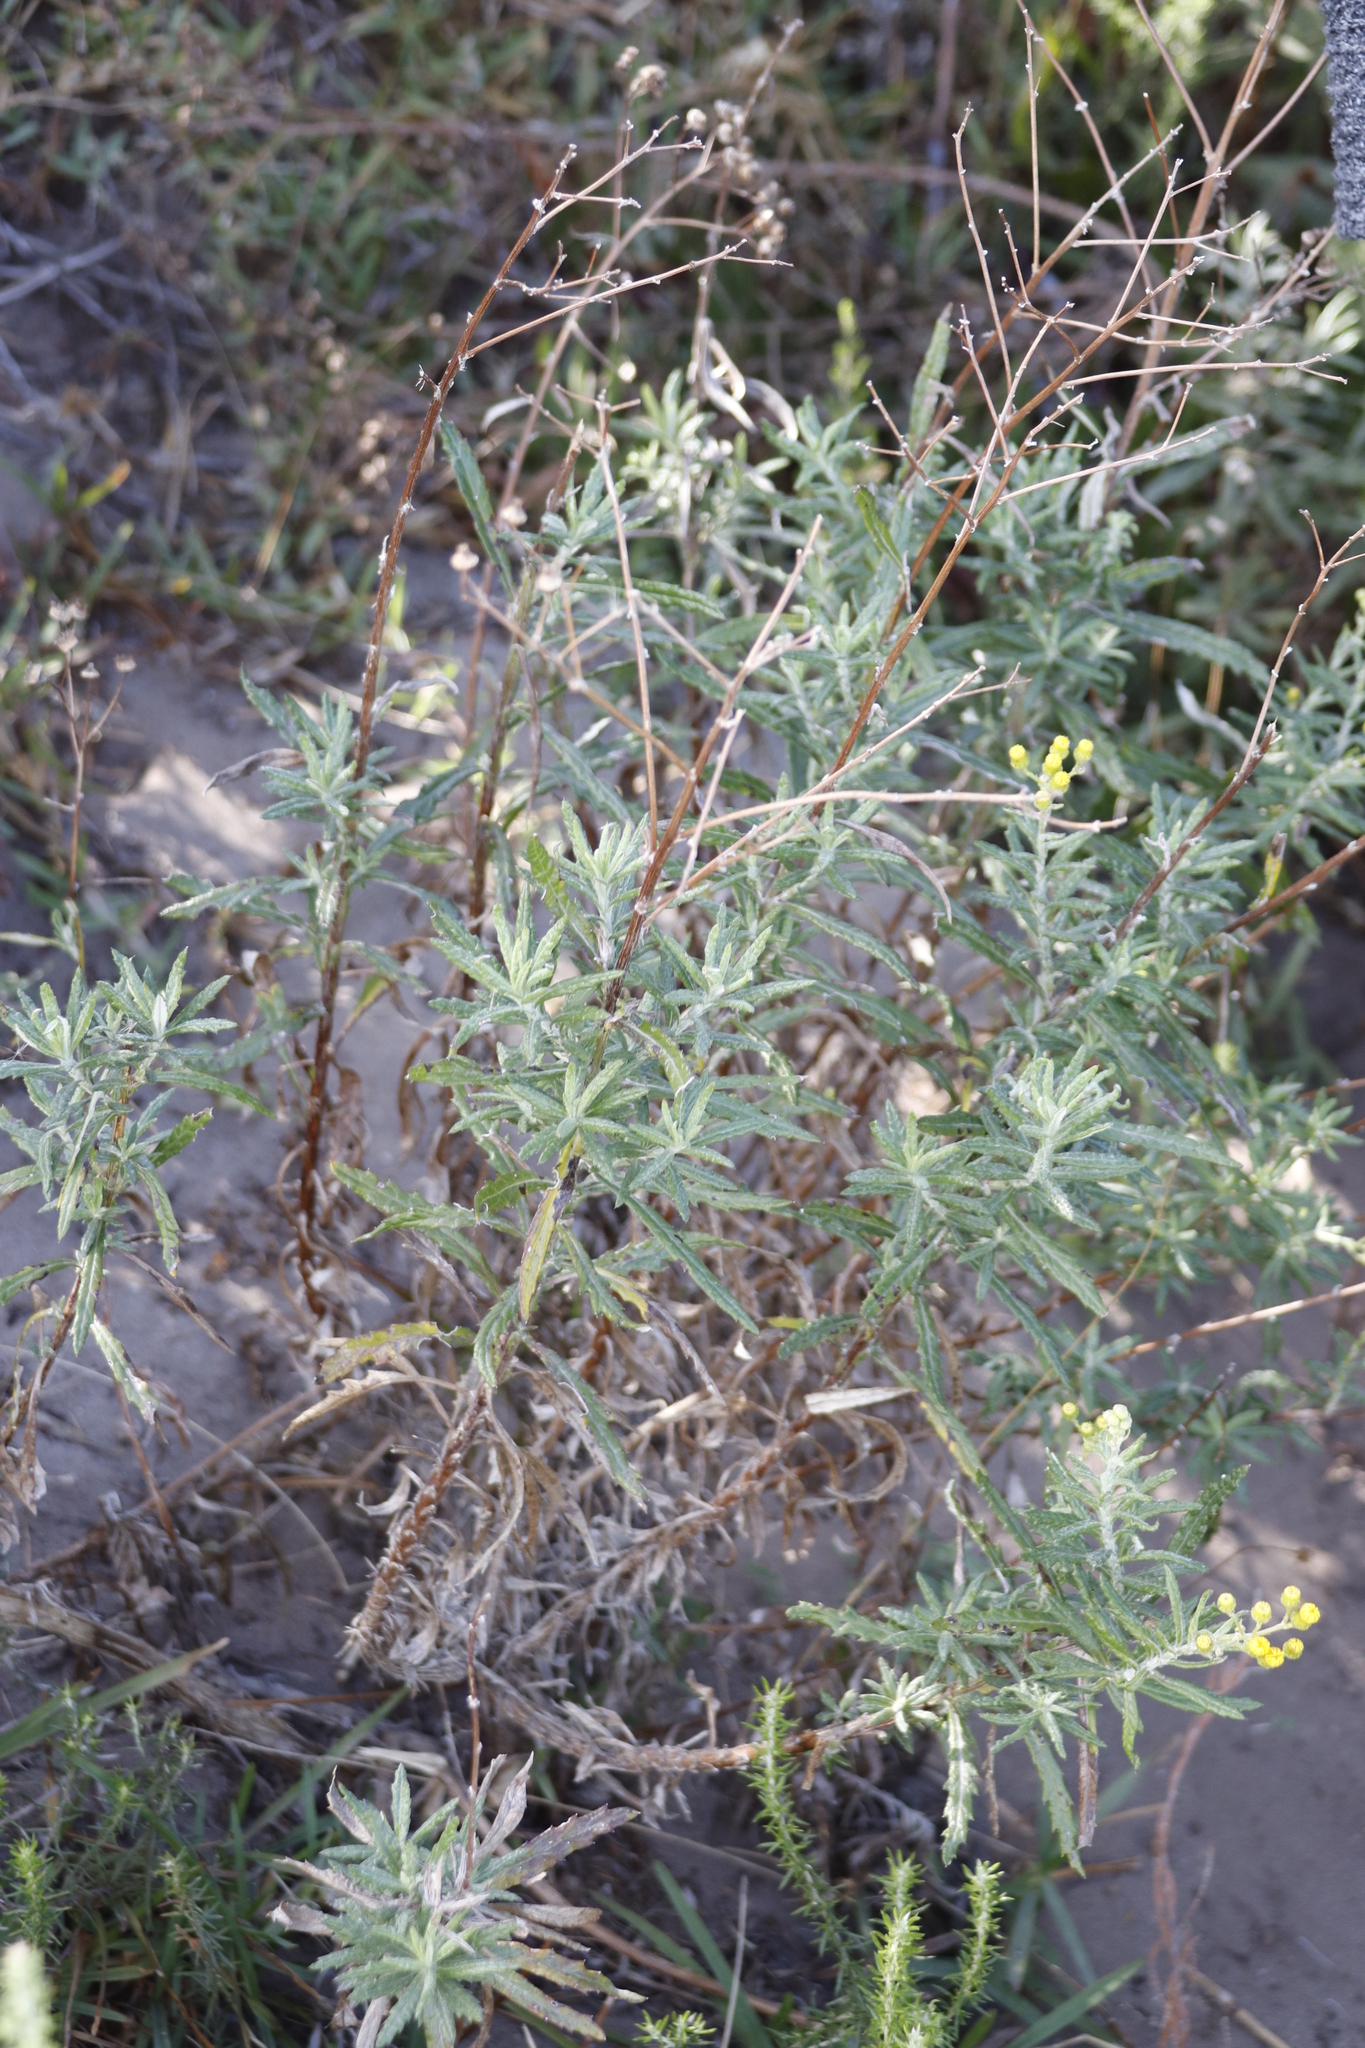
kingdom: Plantae
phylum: Tracheophyta
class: Magnoliopsida
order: Asterales
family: Asteraceae
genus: Senecio
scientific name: Senecio pterophorus
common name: Shoddy ragwort
